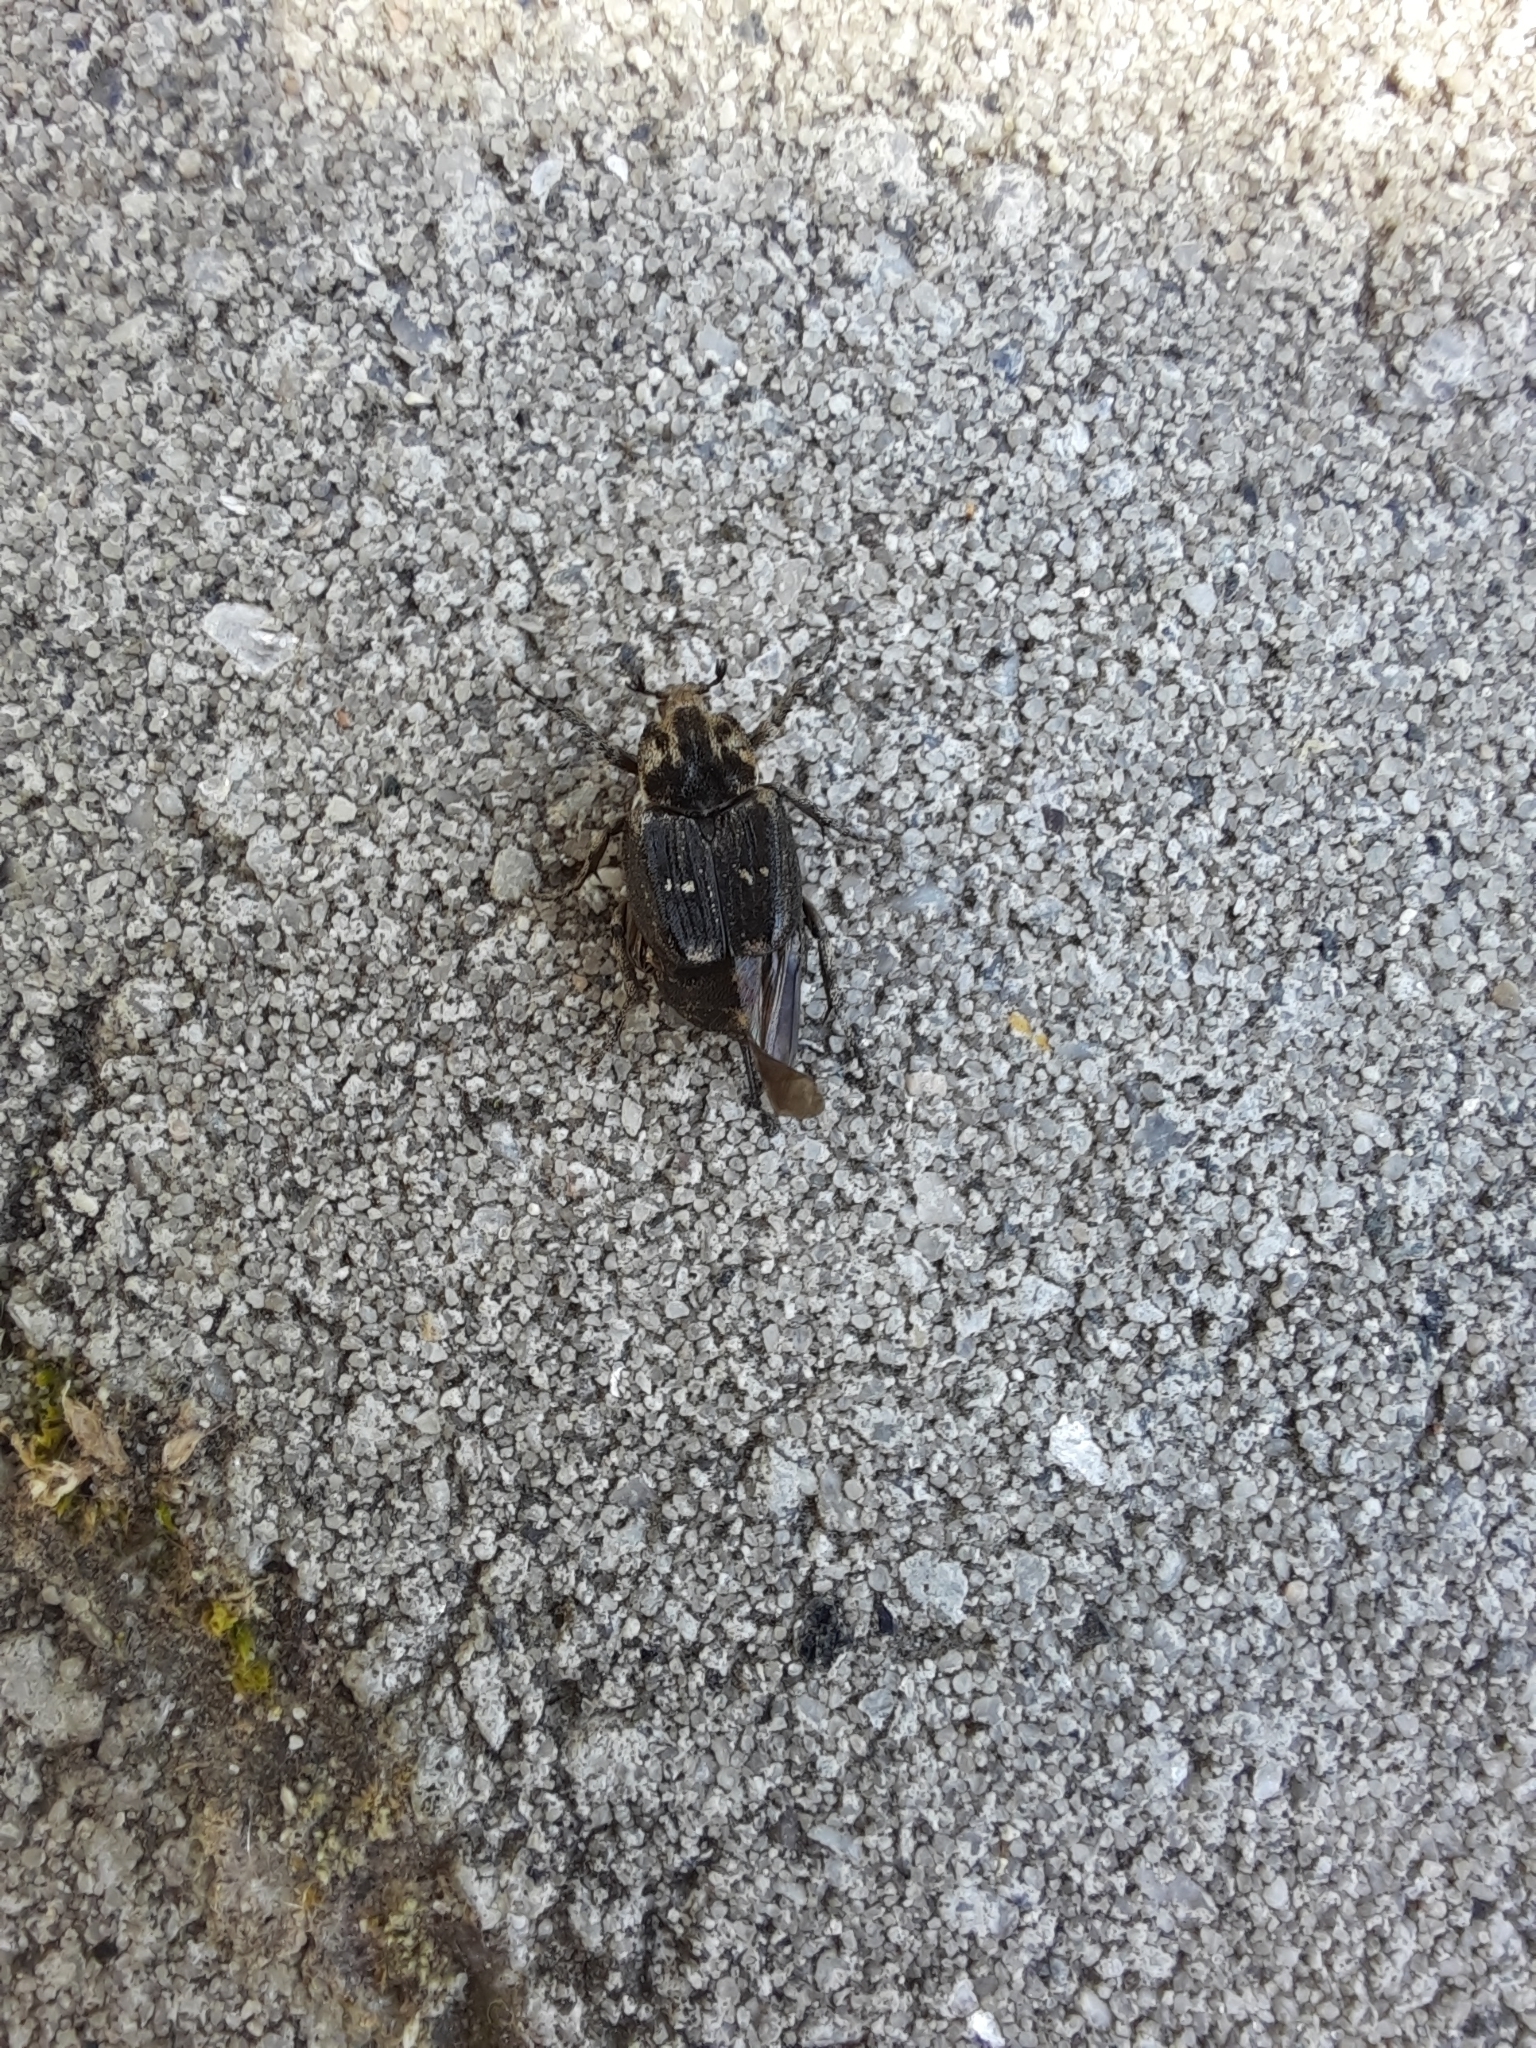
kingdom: Animalia
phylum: Arthropoda
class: Insecta
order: Coleoptera
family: Scarabaeidae
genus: Valgus
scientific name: Valgus hemipterus
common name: Bug flower chafer
